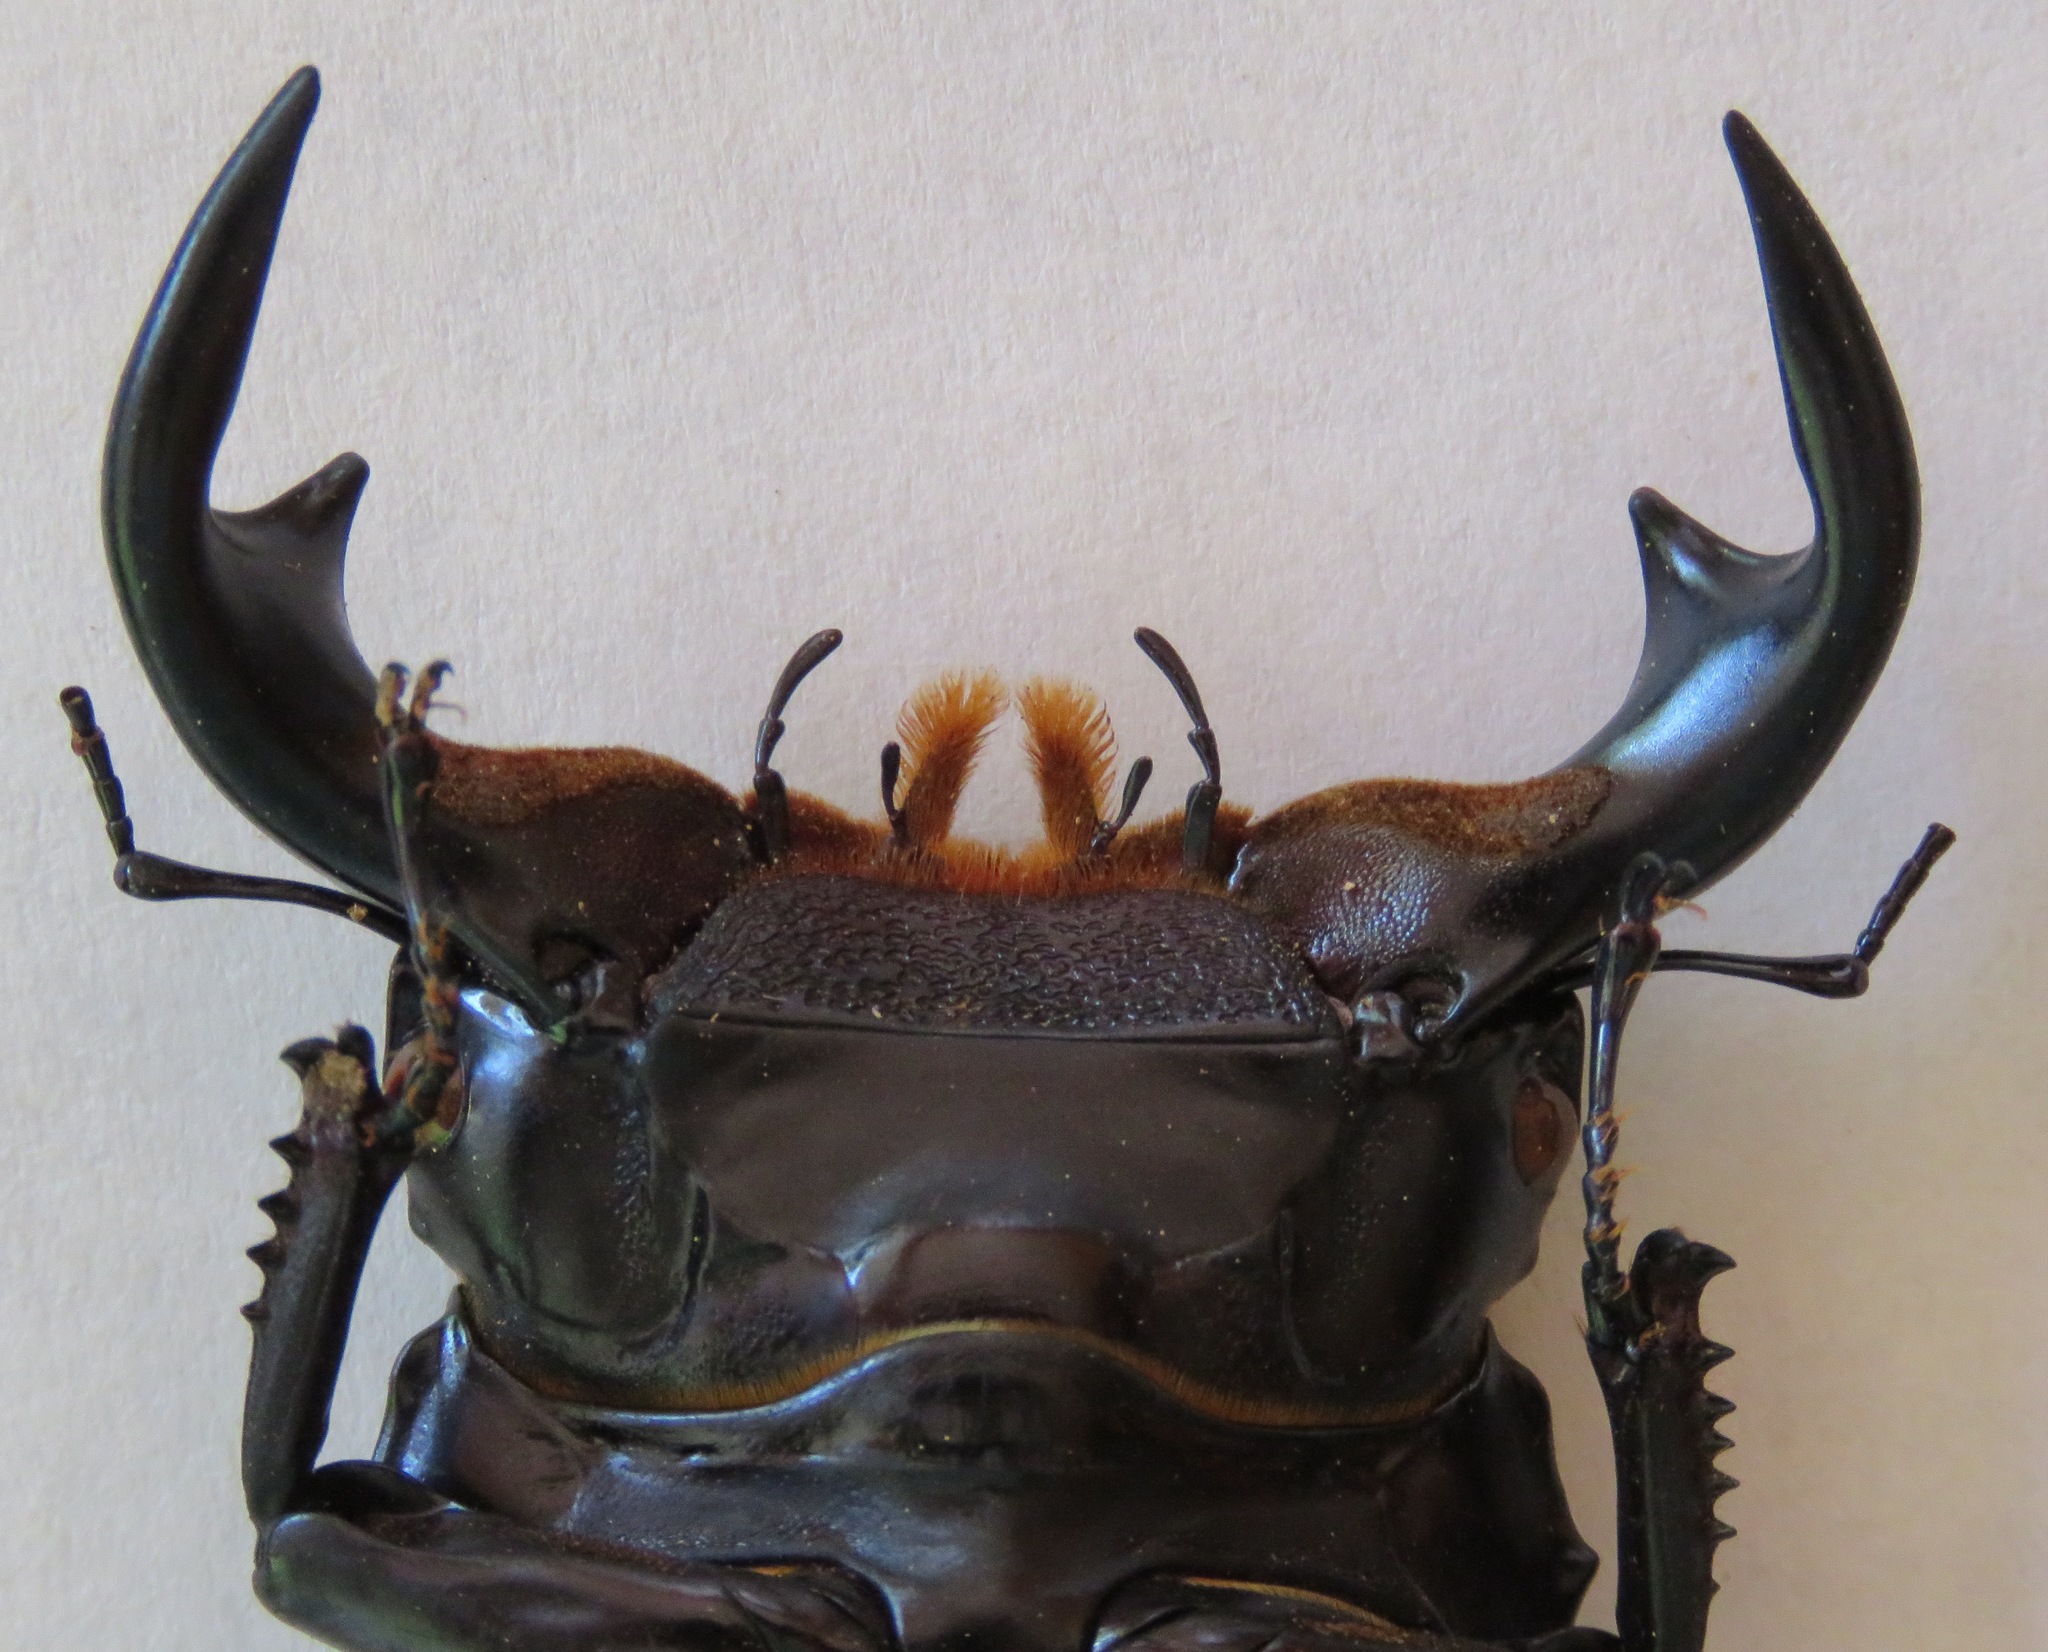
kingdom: Animalia
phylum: Arthropoda
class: Insecta
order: Coleoptera
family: Lucanidae
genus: Dorcus
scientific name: Dorcus antaeus
